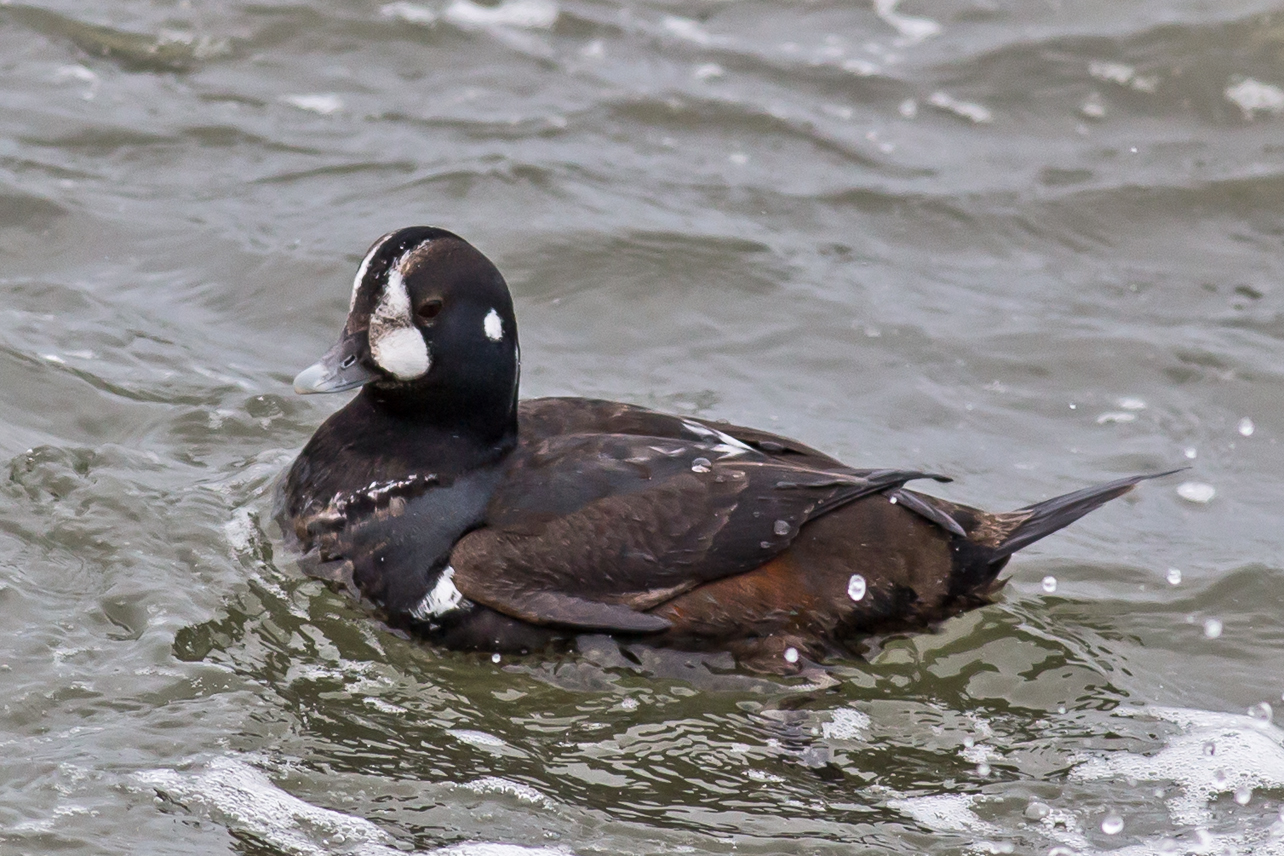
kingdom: Animalia
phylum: Chordata
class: Aves
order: Anseriformes
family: Anatidae
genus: Histrionicus
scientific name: Histrionicus histrionicus
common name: Harlequin duck
